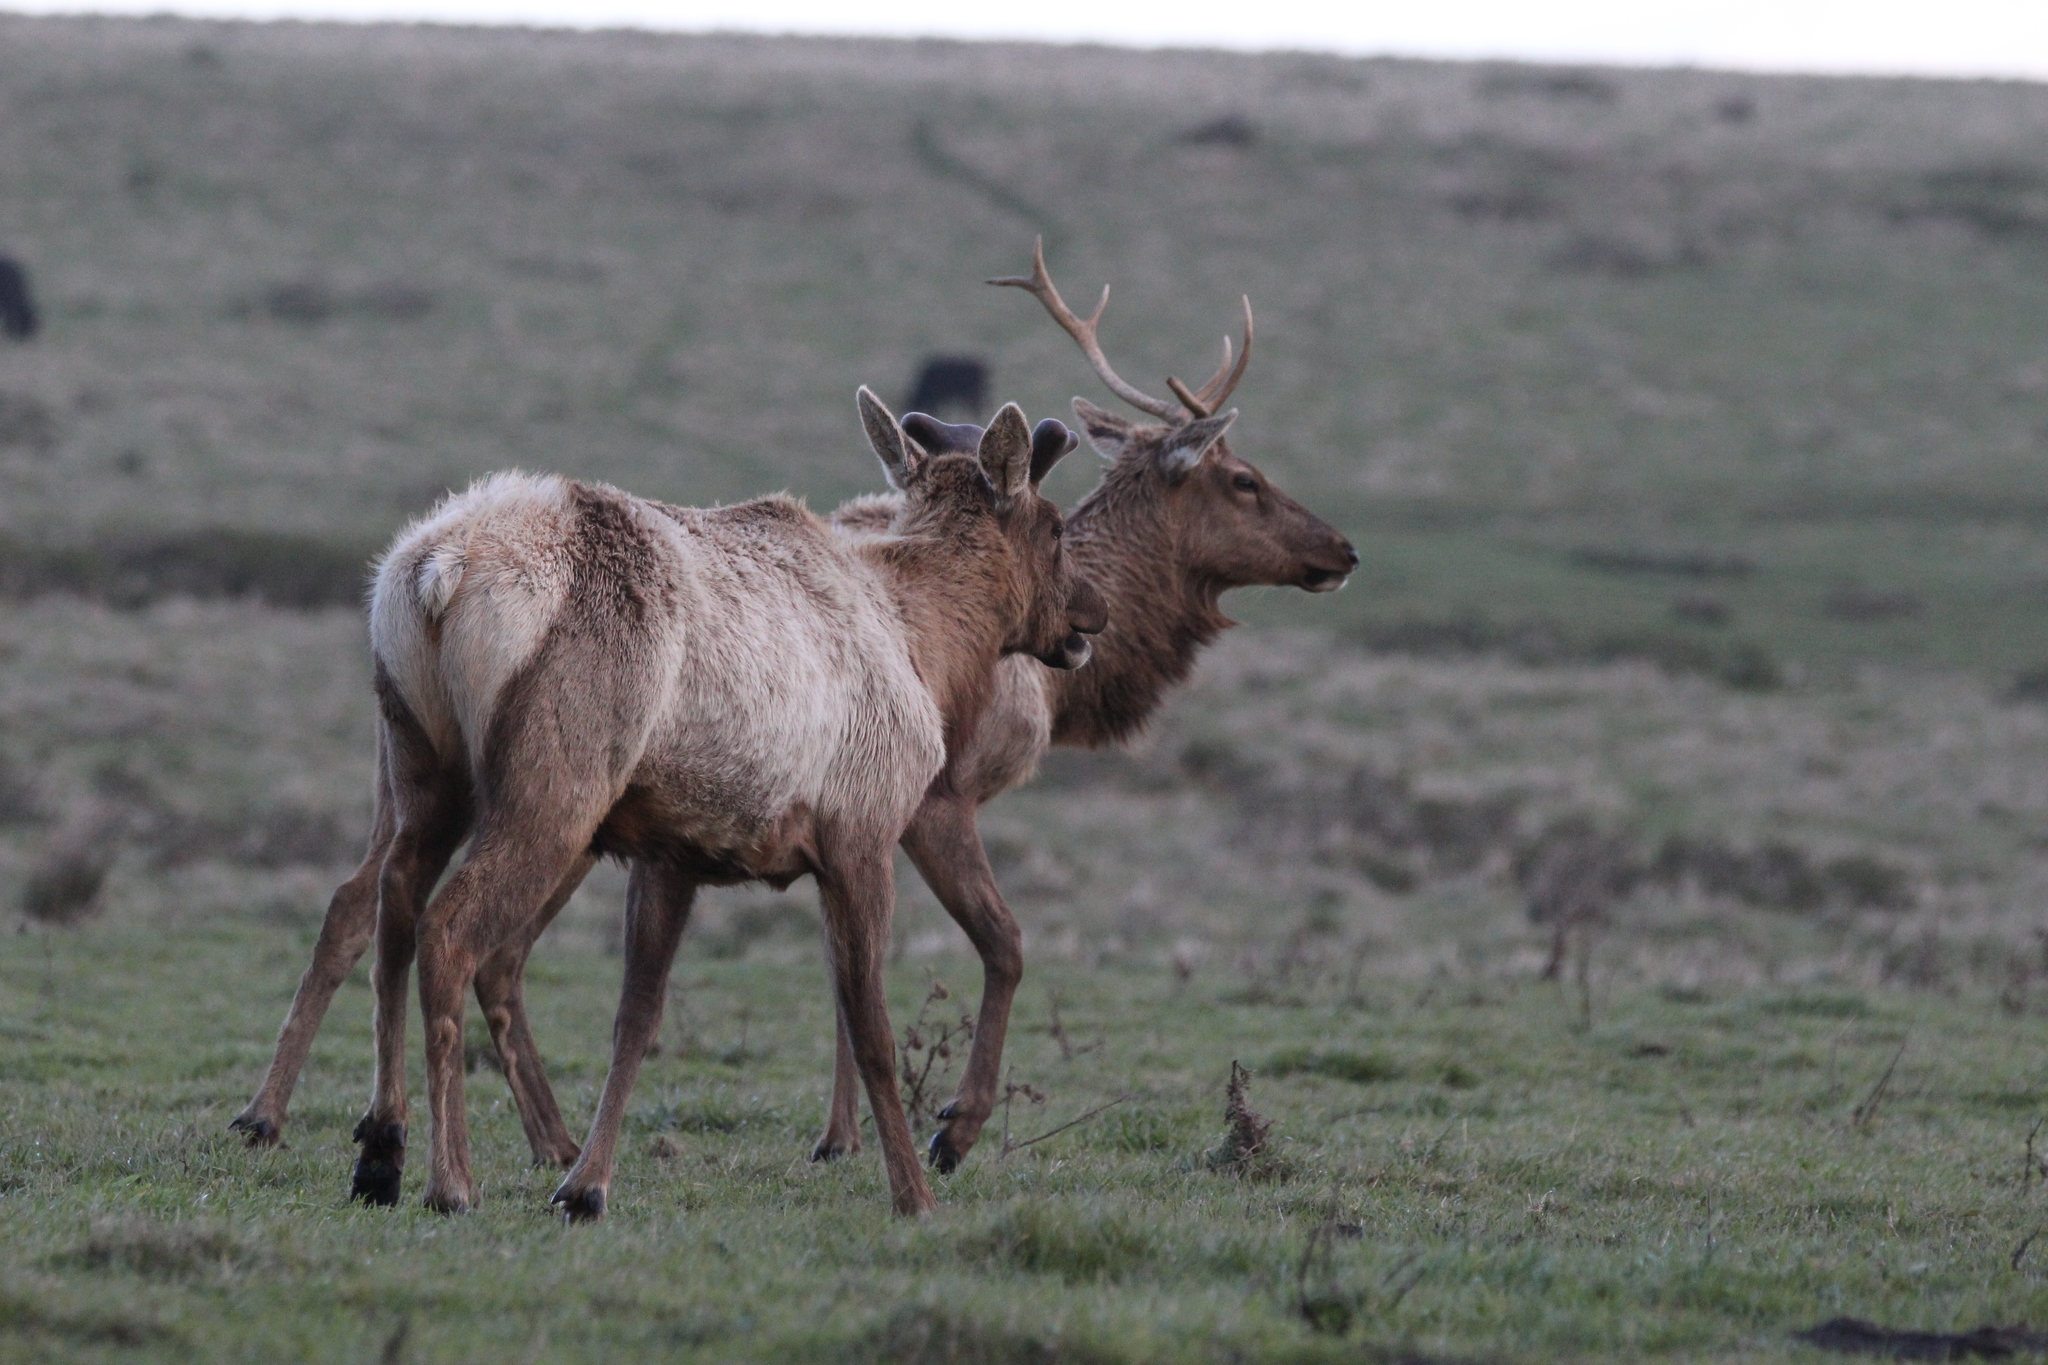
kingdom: Animalia
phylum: Chordata
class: Mammalia
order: Artiodactyla
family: Cervidae
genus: Cervus
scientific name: Cervus elaphus
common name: Red deer
